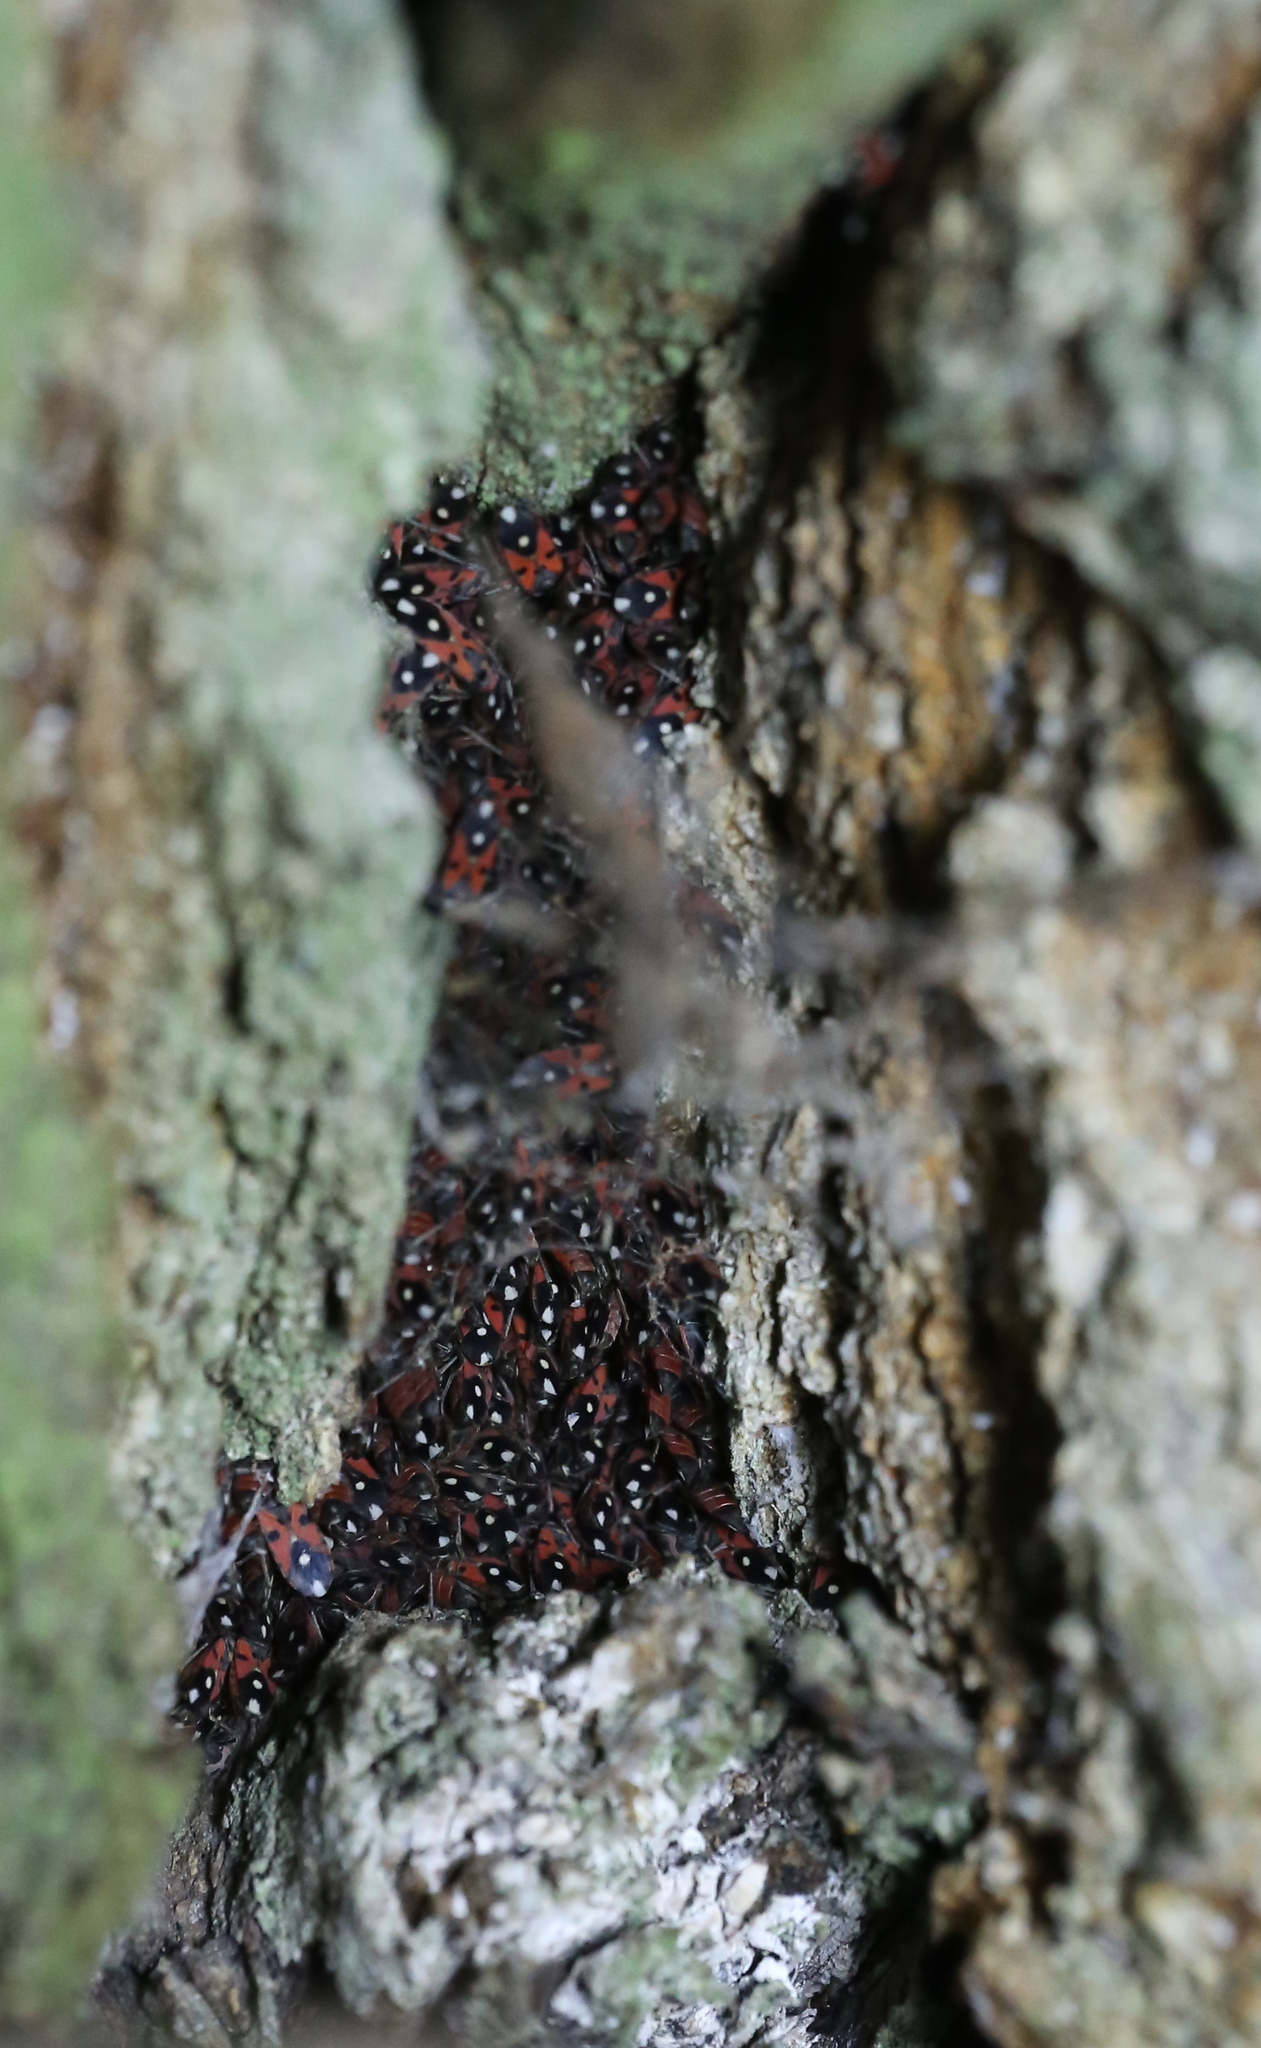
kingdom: Animalia
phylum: Arthropoda
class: Insecta
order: Hemiptera
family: Lygaeidae
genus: Horvathiolus
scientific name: Horvathiolus
